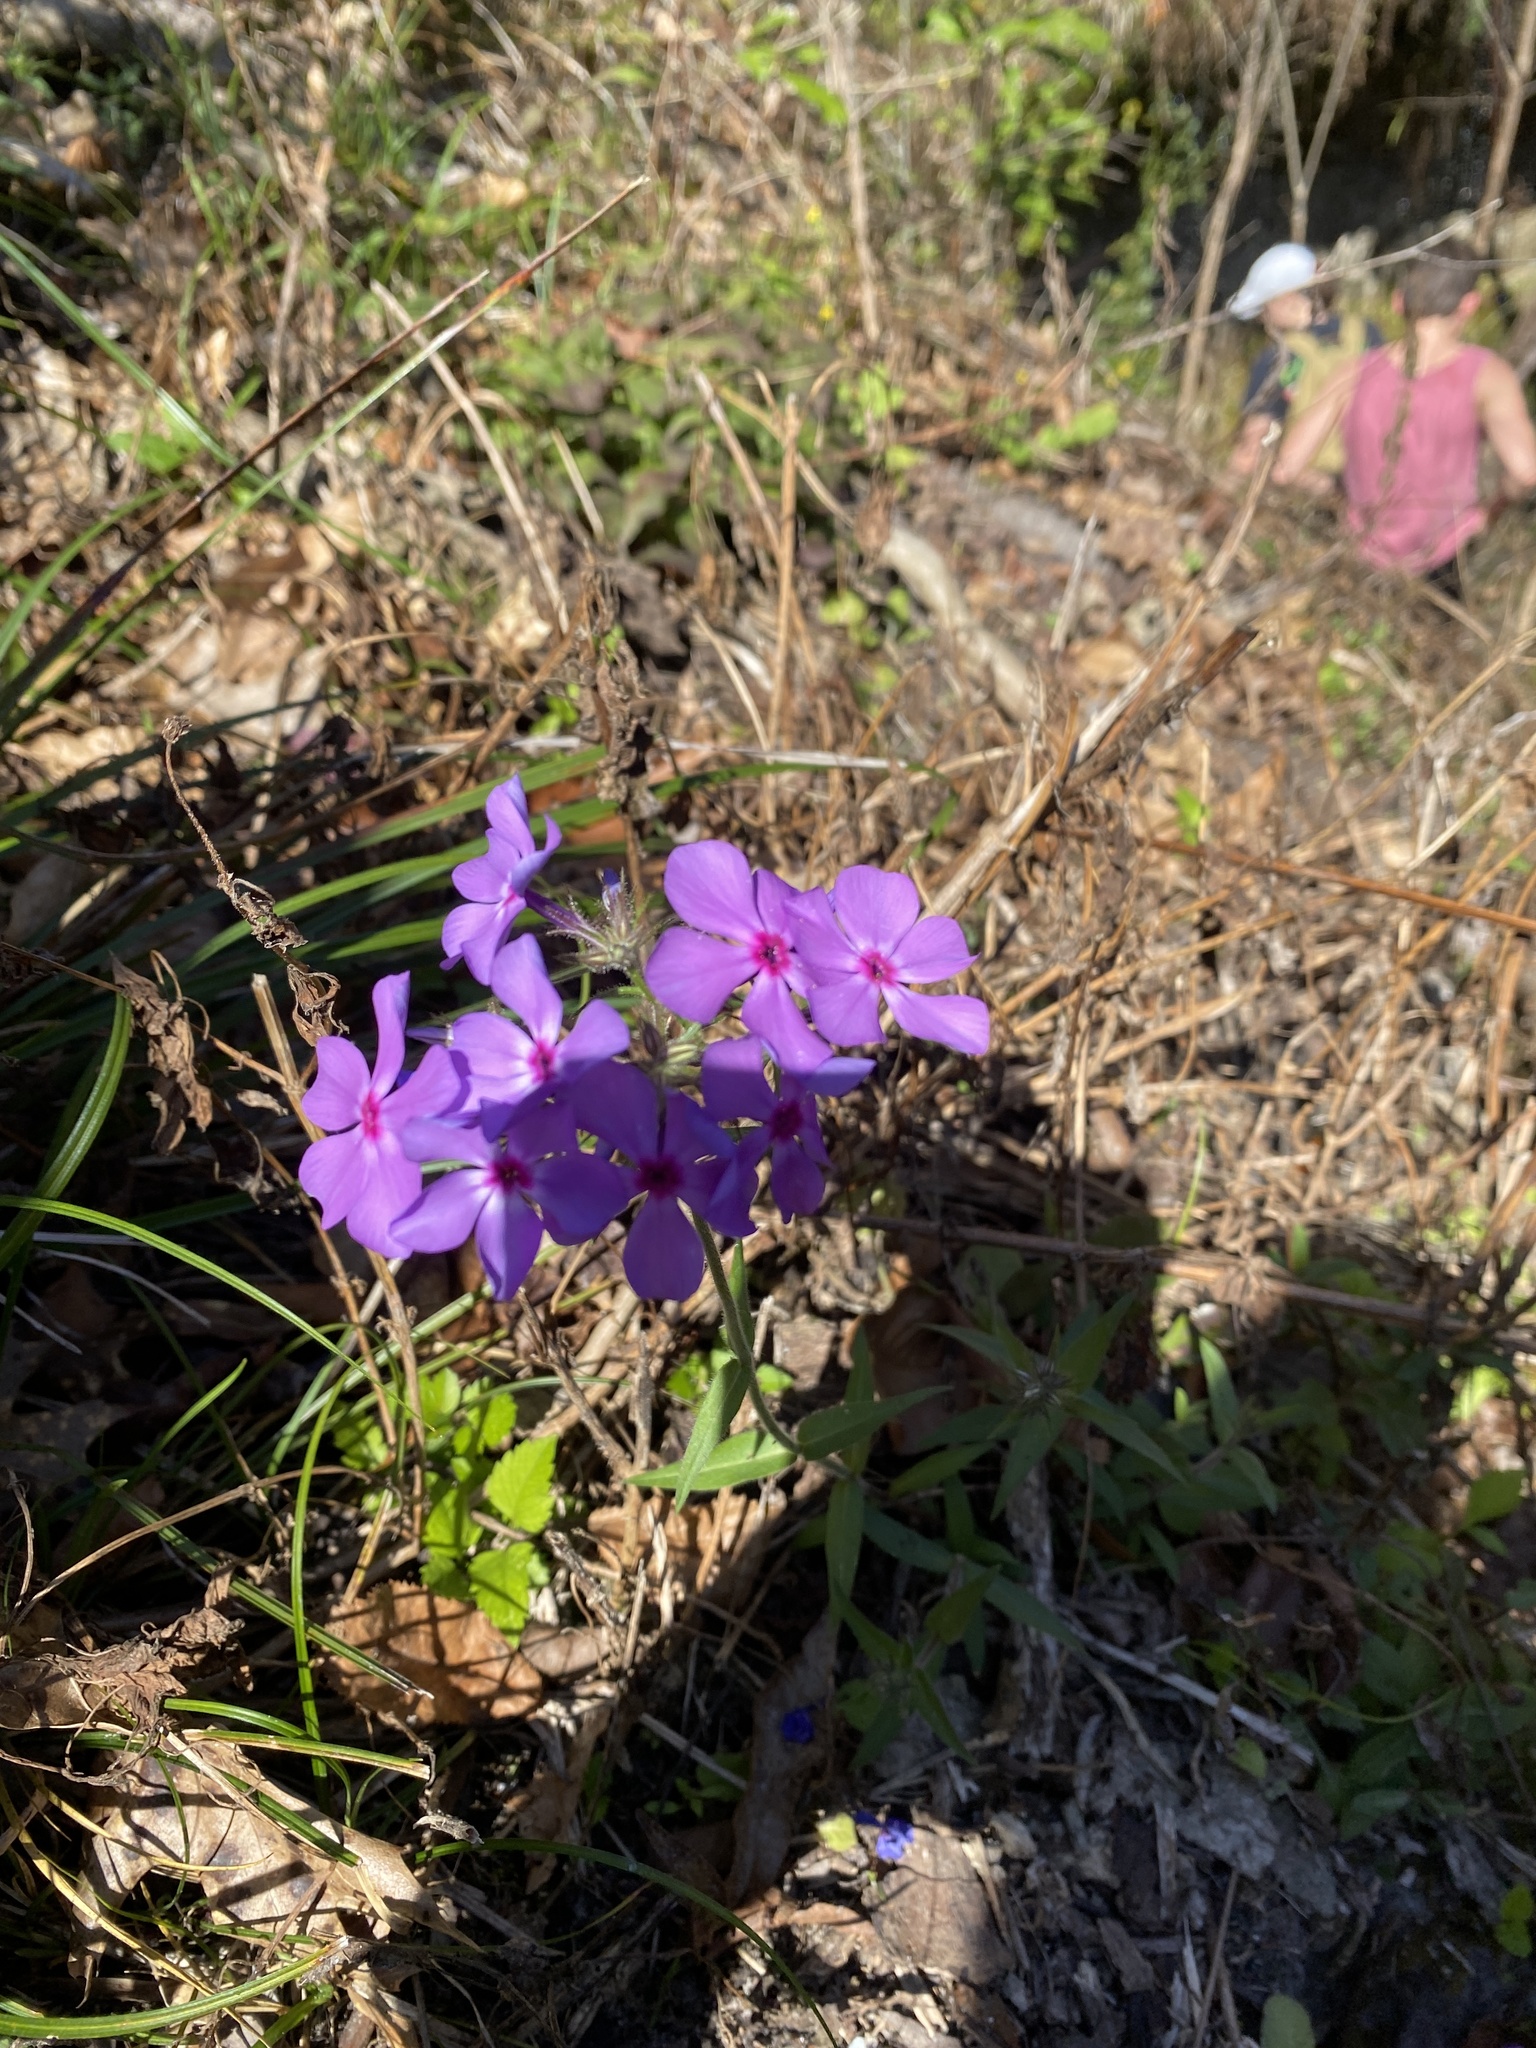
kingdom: Plantae
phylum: Tracheophyta
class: Magnoliopsida
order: Ericales
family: Polemoniaceae
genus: Phlox
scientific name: Phlox divaricata
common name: Blue phlox
